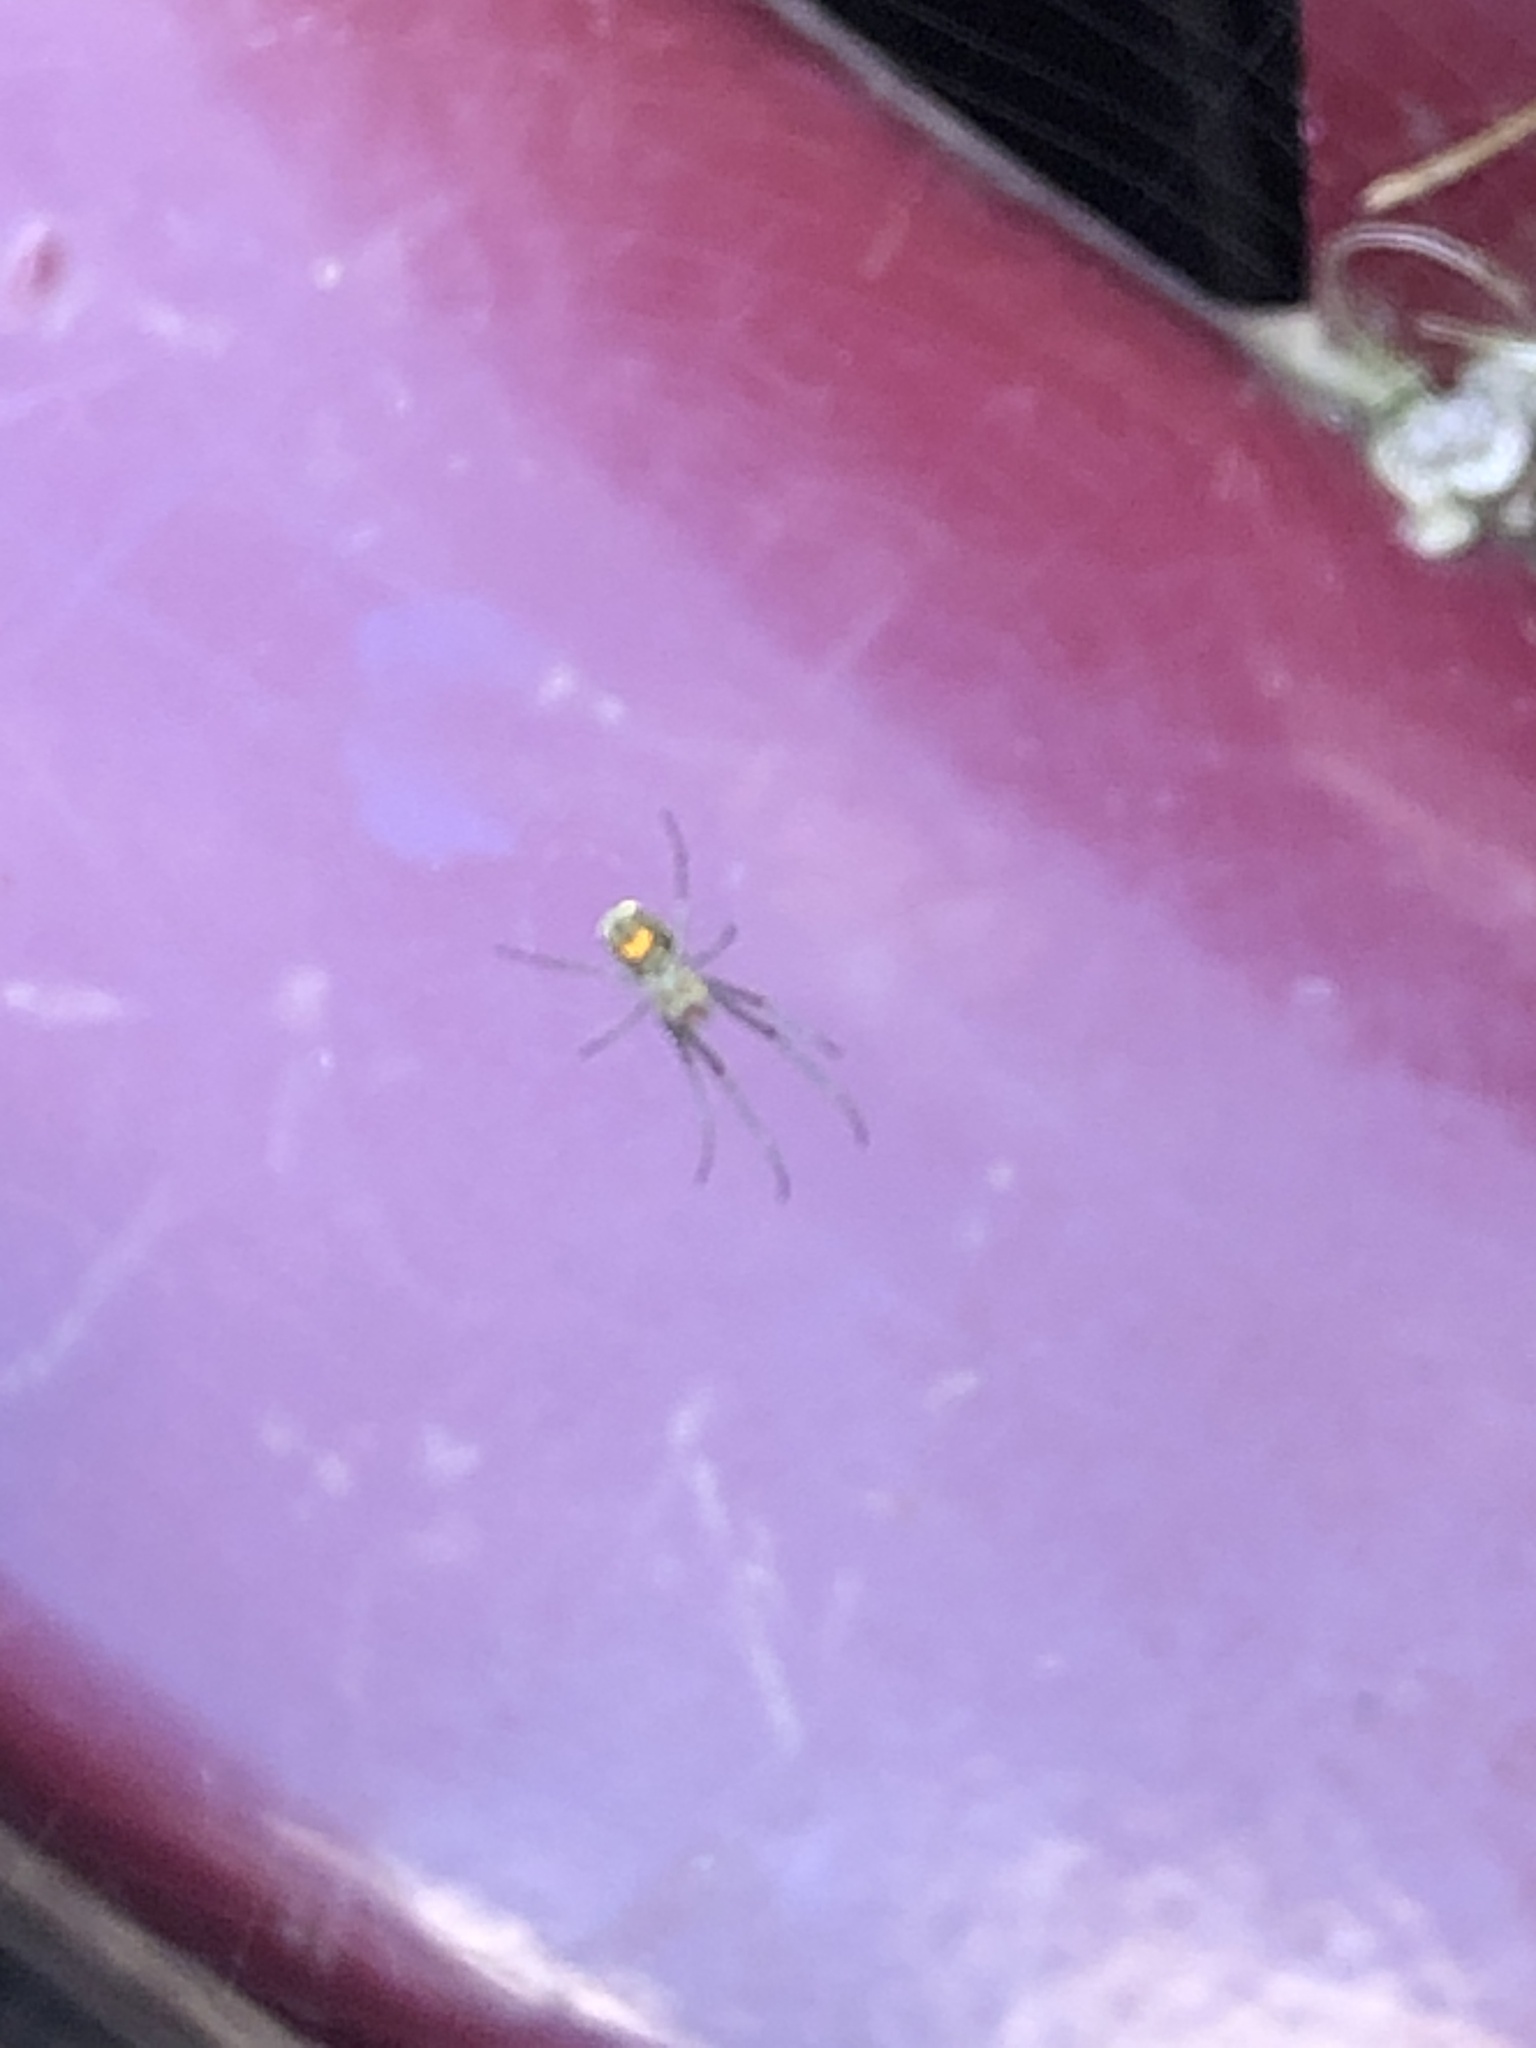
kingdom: Animalia
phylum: Arthropoda
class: Arachnida
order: Araneae
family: Tetragnathidae
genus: Leucauge
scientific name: Leucauge venusta
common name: Longjawed orb weavers
